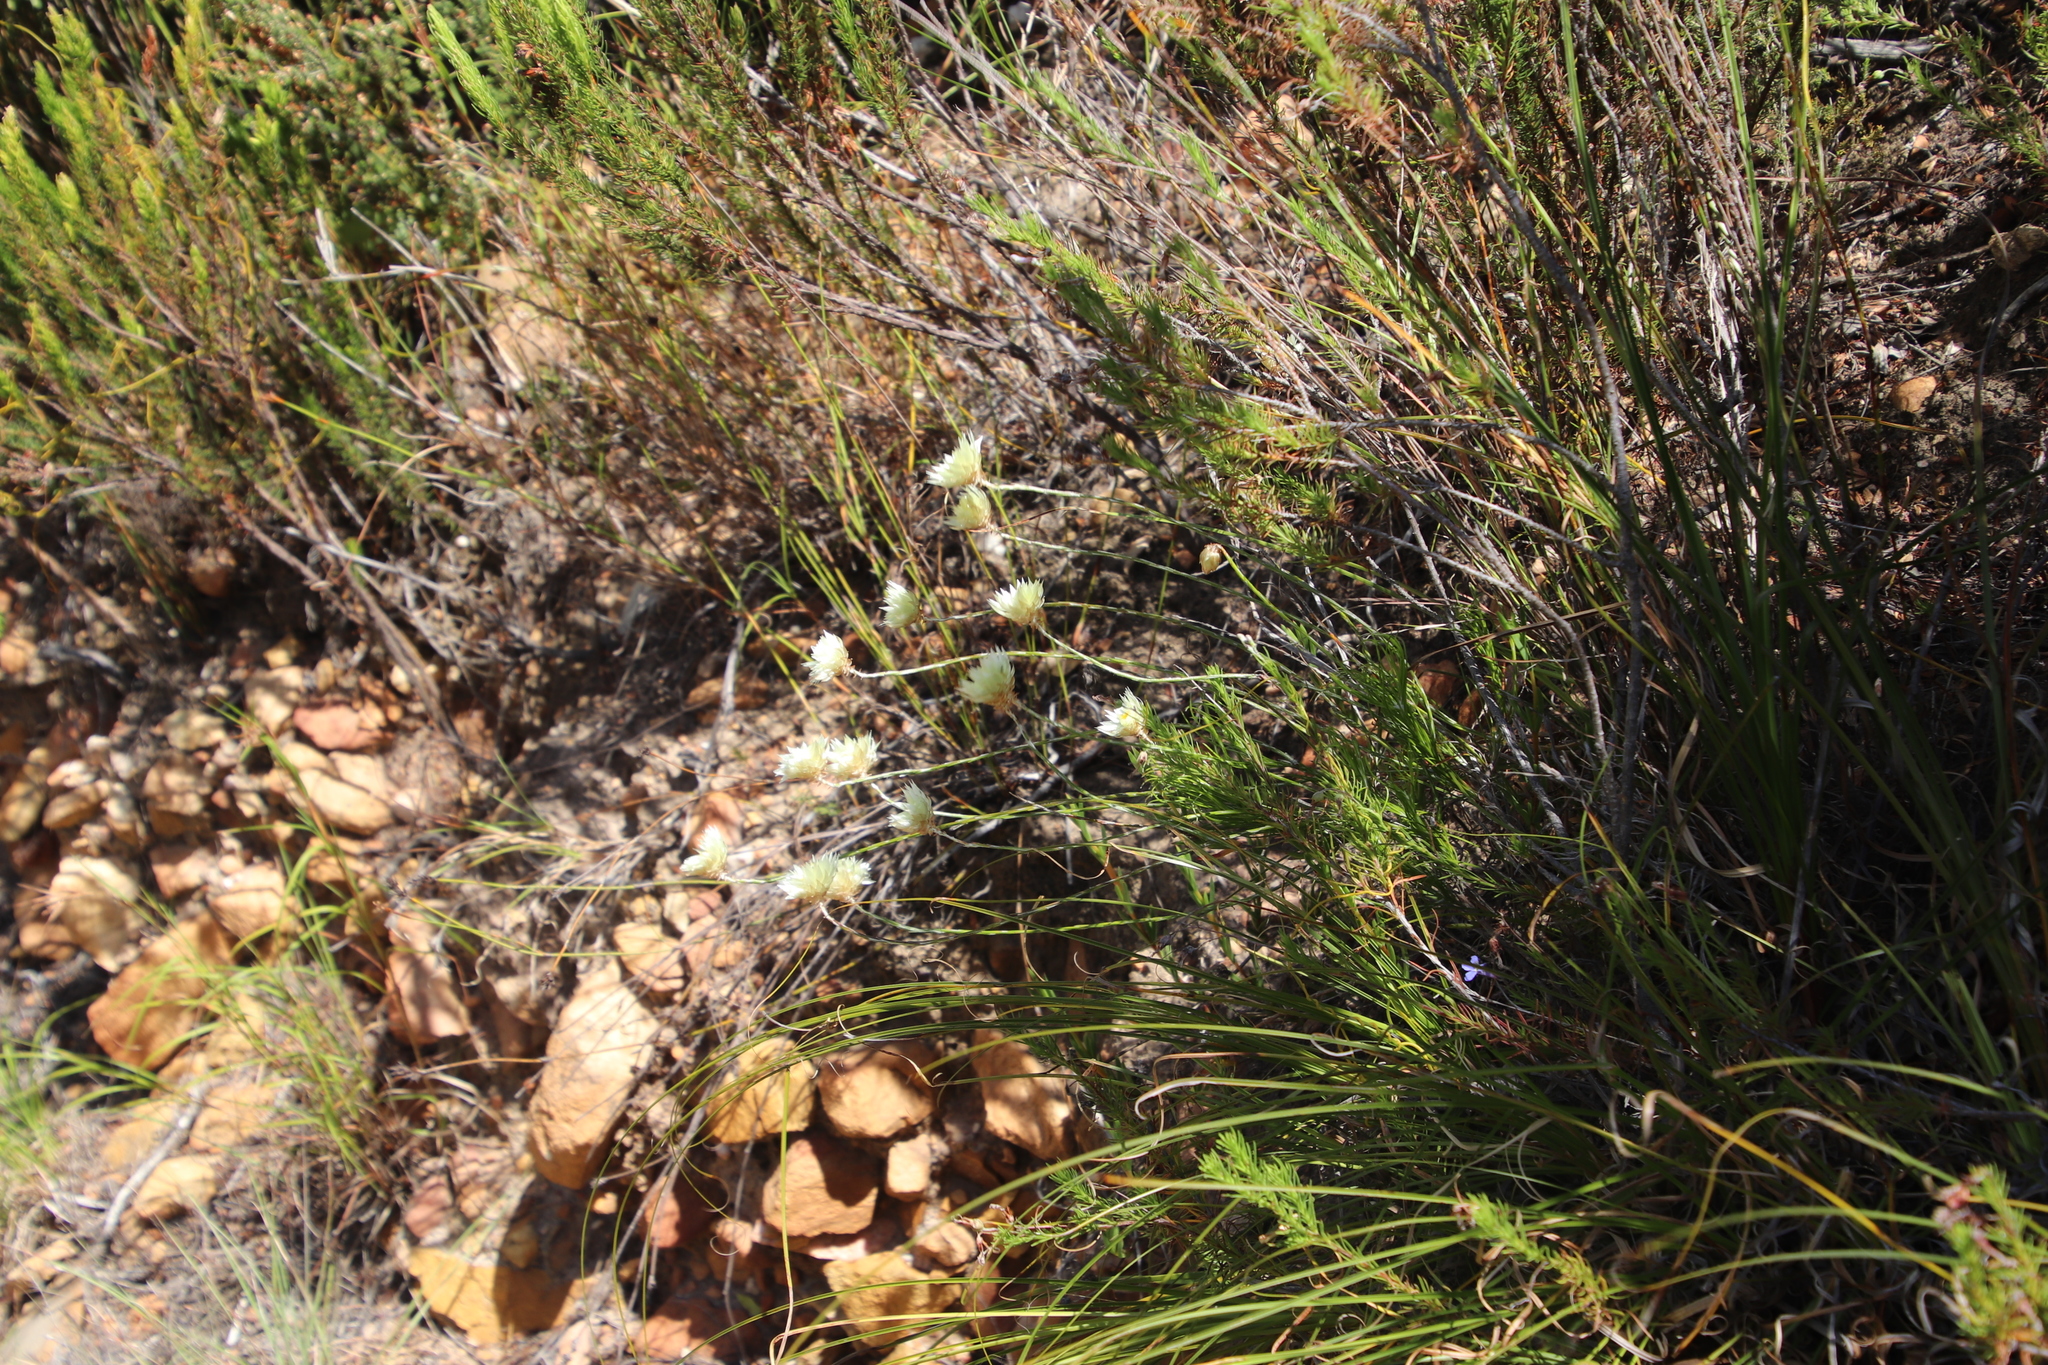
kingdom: Plantae
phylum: Tracheophyta
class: Magnoliopsida
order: Asterales
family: Asteraceae
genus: Edmondia
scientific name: Edmondia sesamoides
